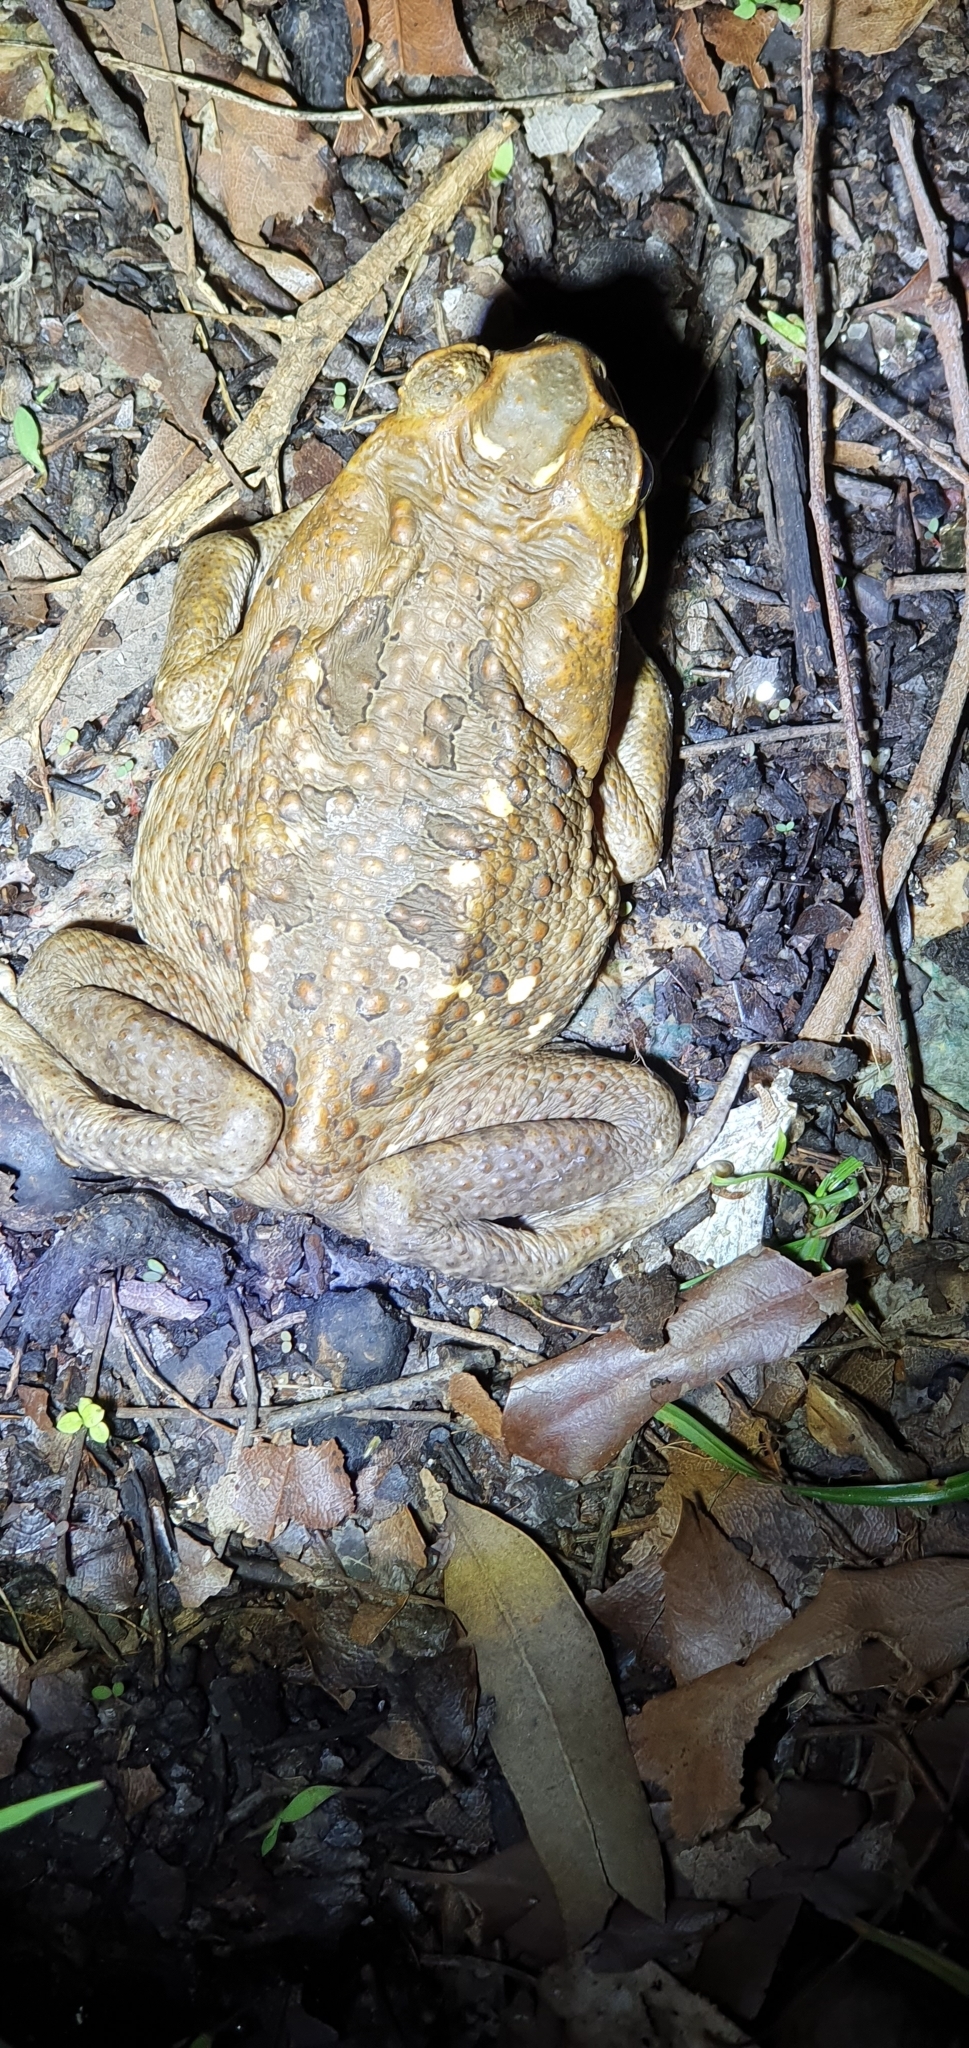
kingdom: Animalia
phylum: Chordata
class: Amphibia
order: Anura
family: Bufonidae
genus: Rhinella
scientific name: Rhinella marina
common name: Cane toad
